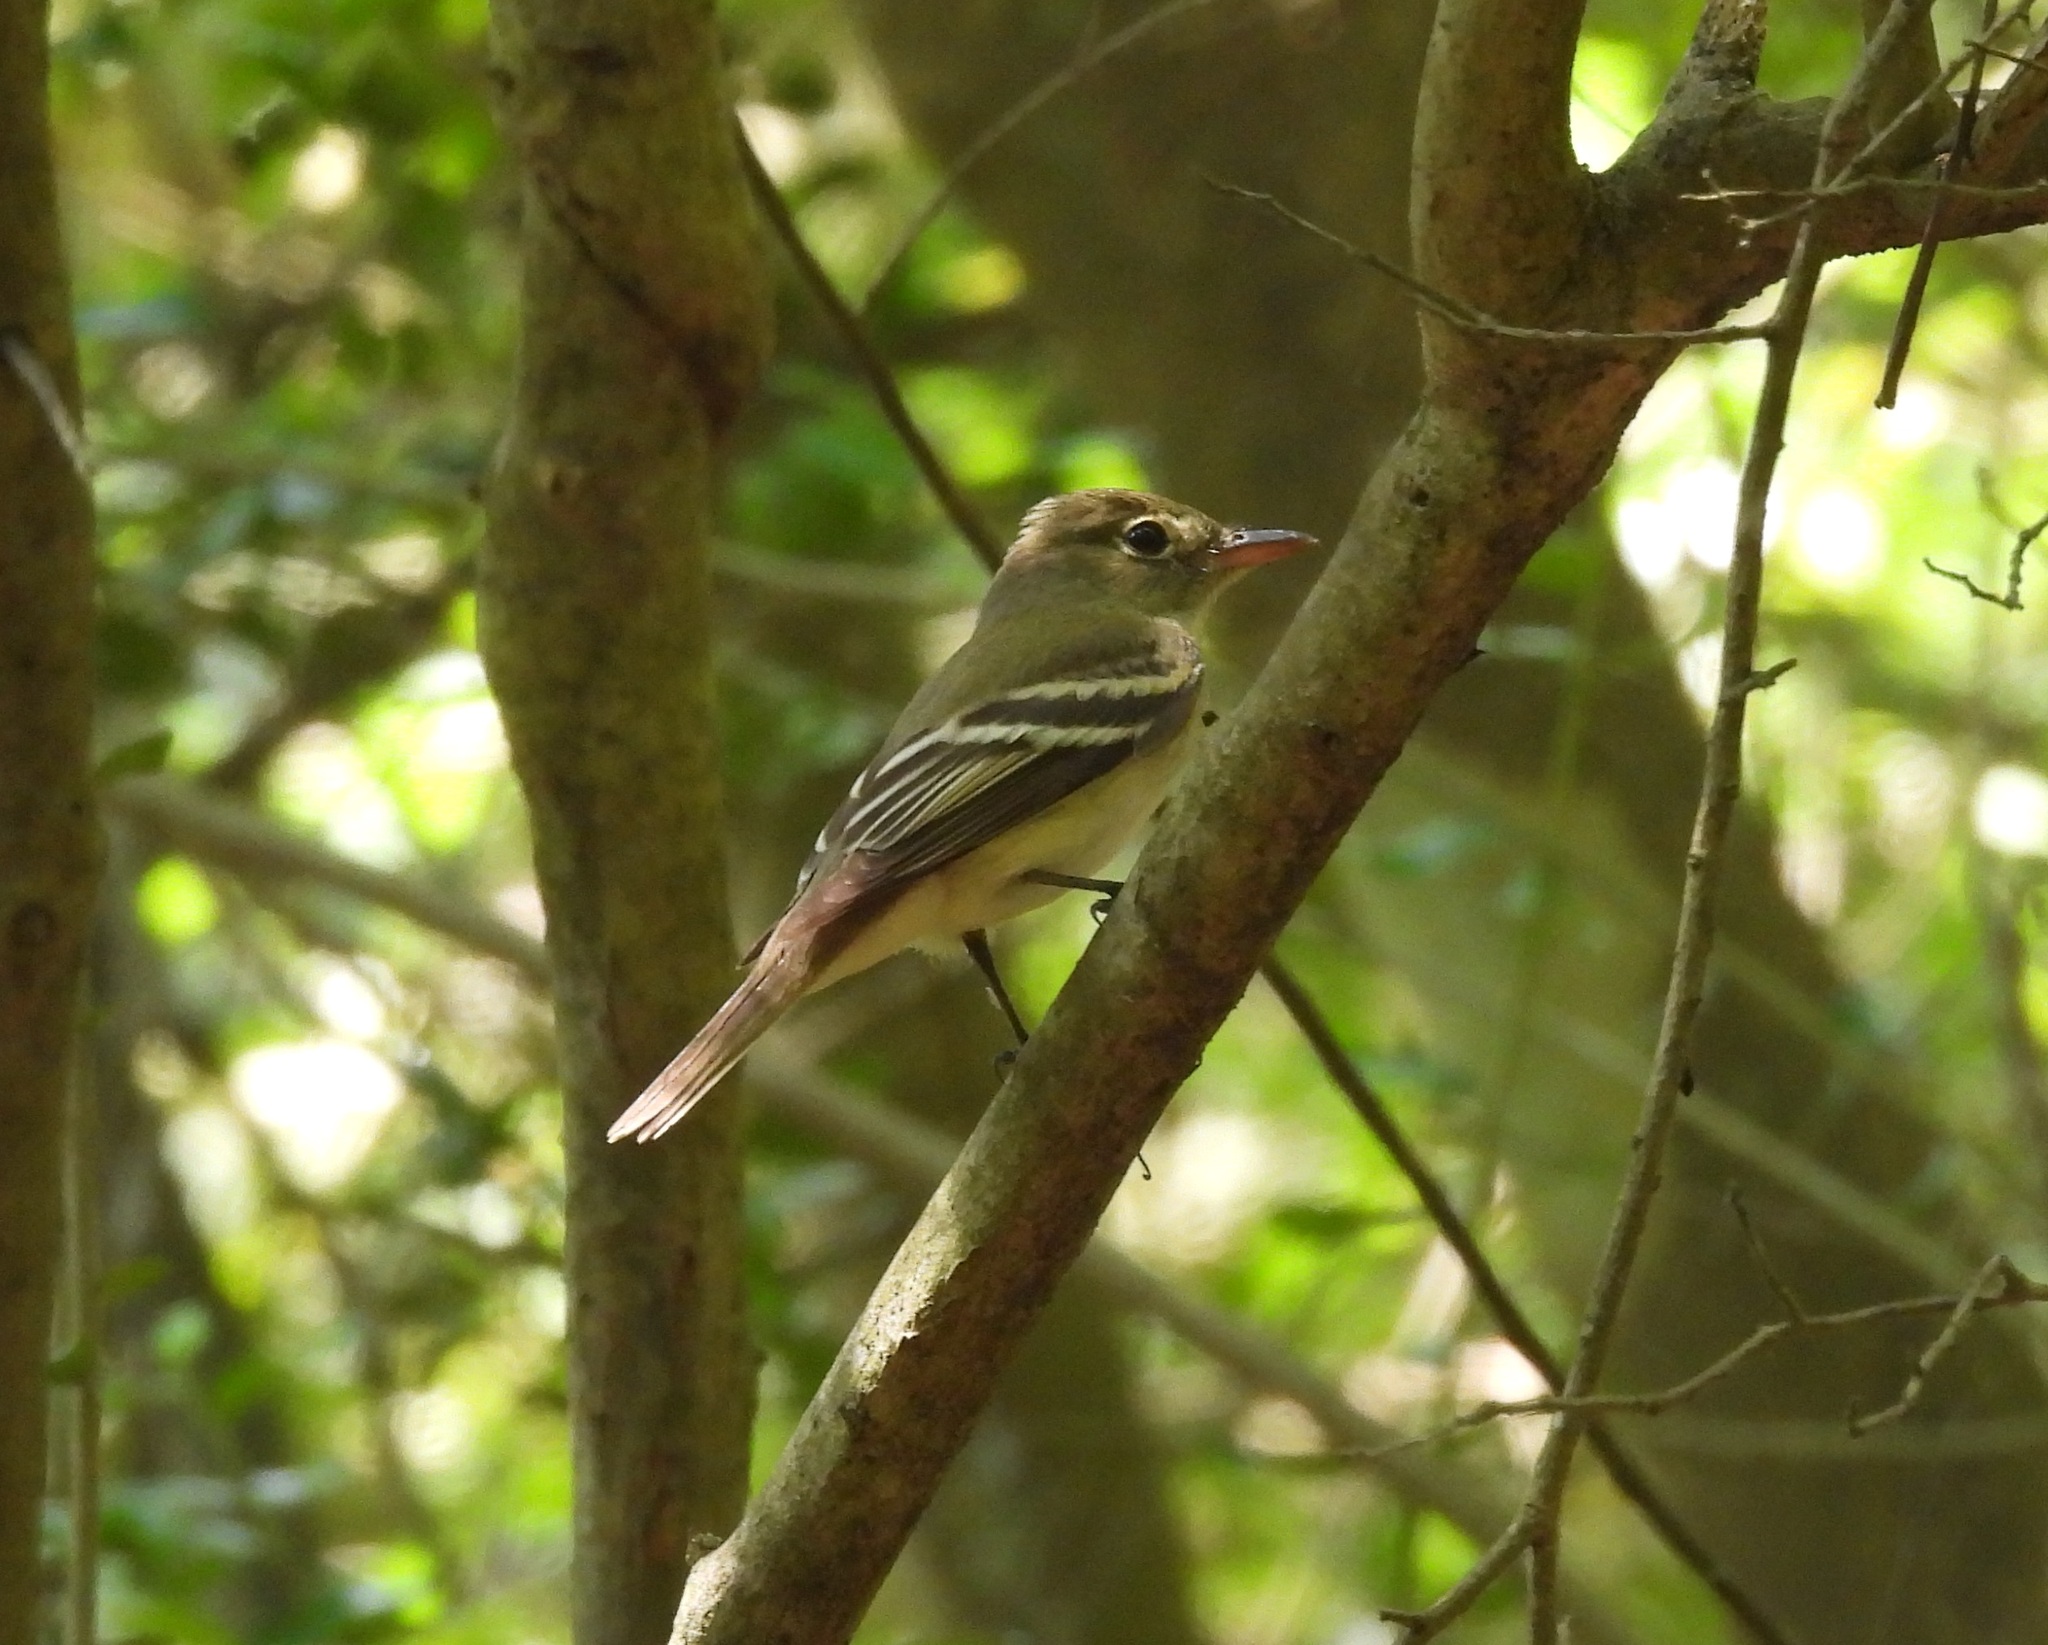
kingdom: Animalia
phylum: Chordata
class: Aves
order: Passeriformes
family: Tyrannidae
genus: Empidonax
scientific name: Empidonax virescens
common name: Acadian flycatcher
